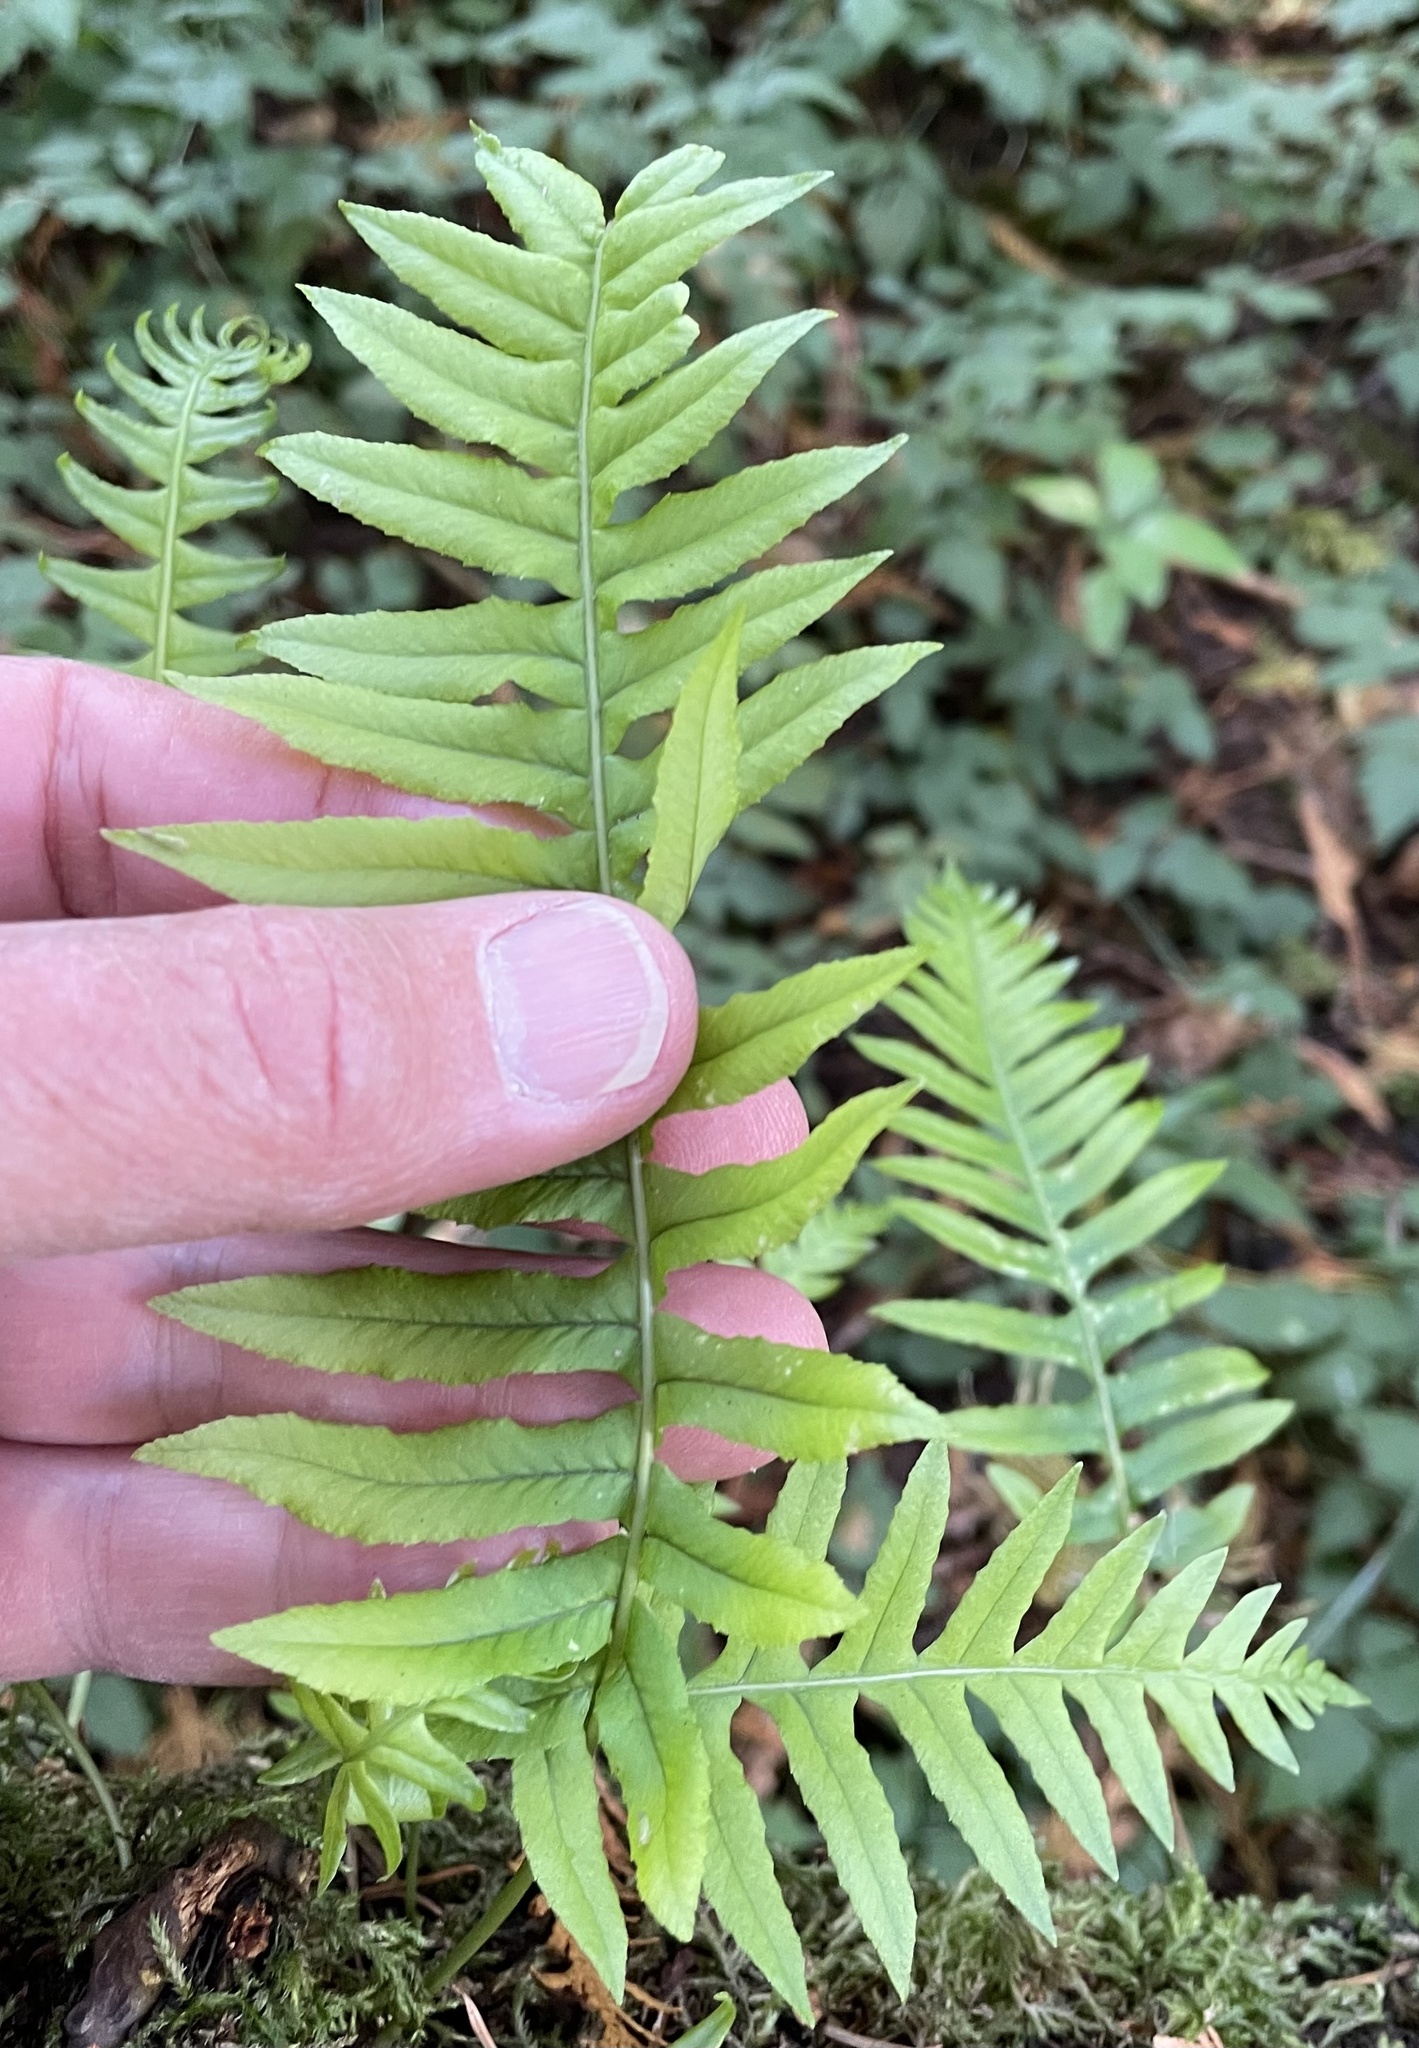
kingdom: Plantae
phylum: Tracheophyta
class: Polypodiopsida
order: Polypodiales
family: Polypodiaceae
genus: Polypodium
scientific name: Polypodium glycyrrhiza
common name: Licorice fern
